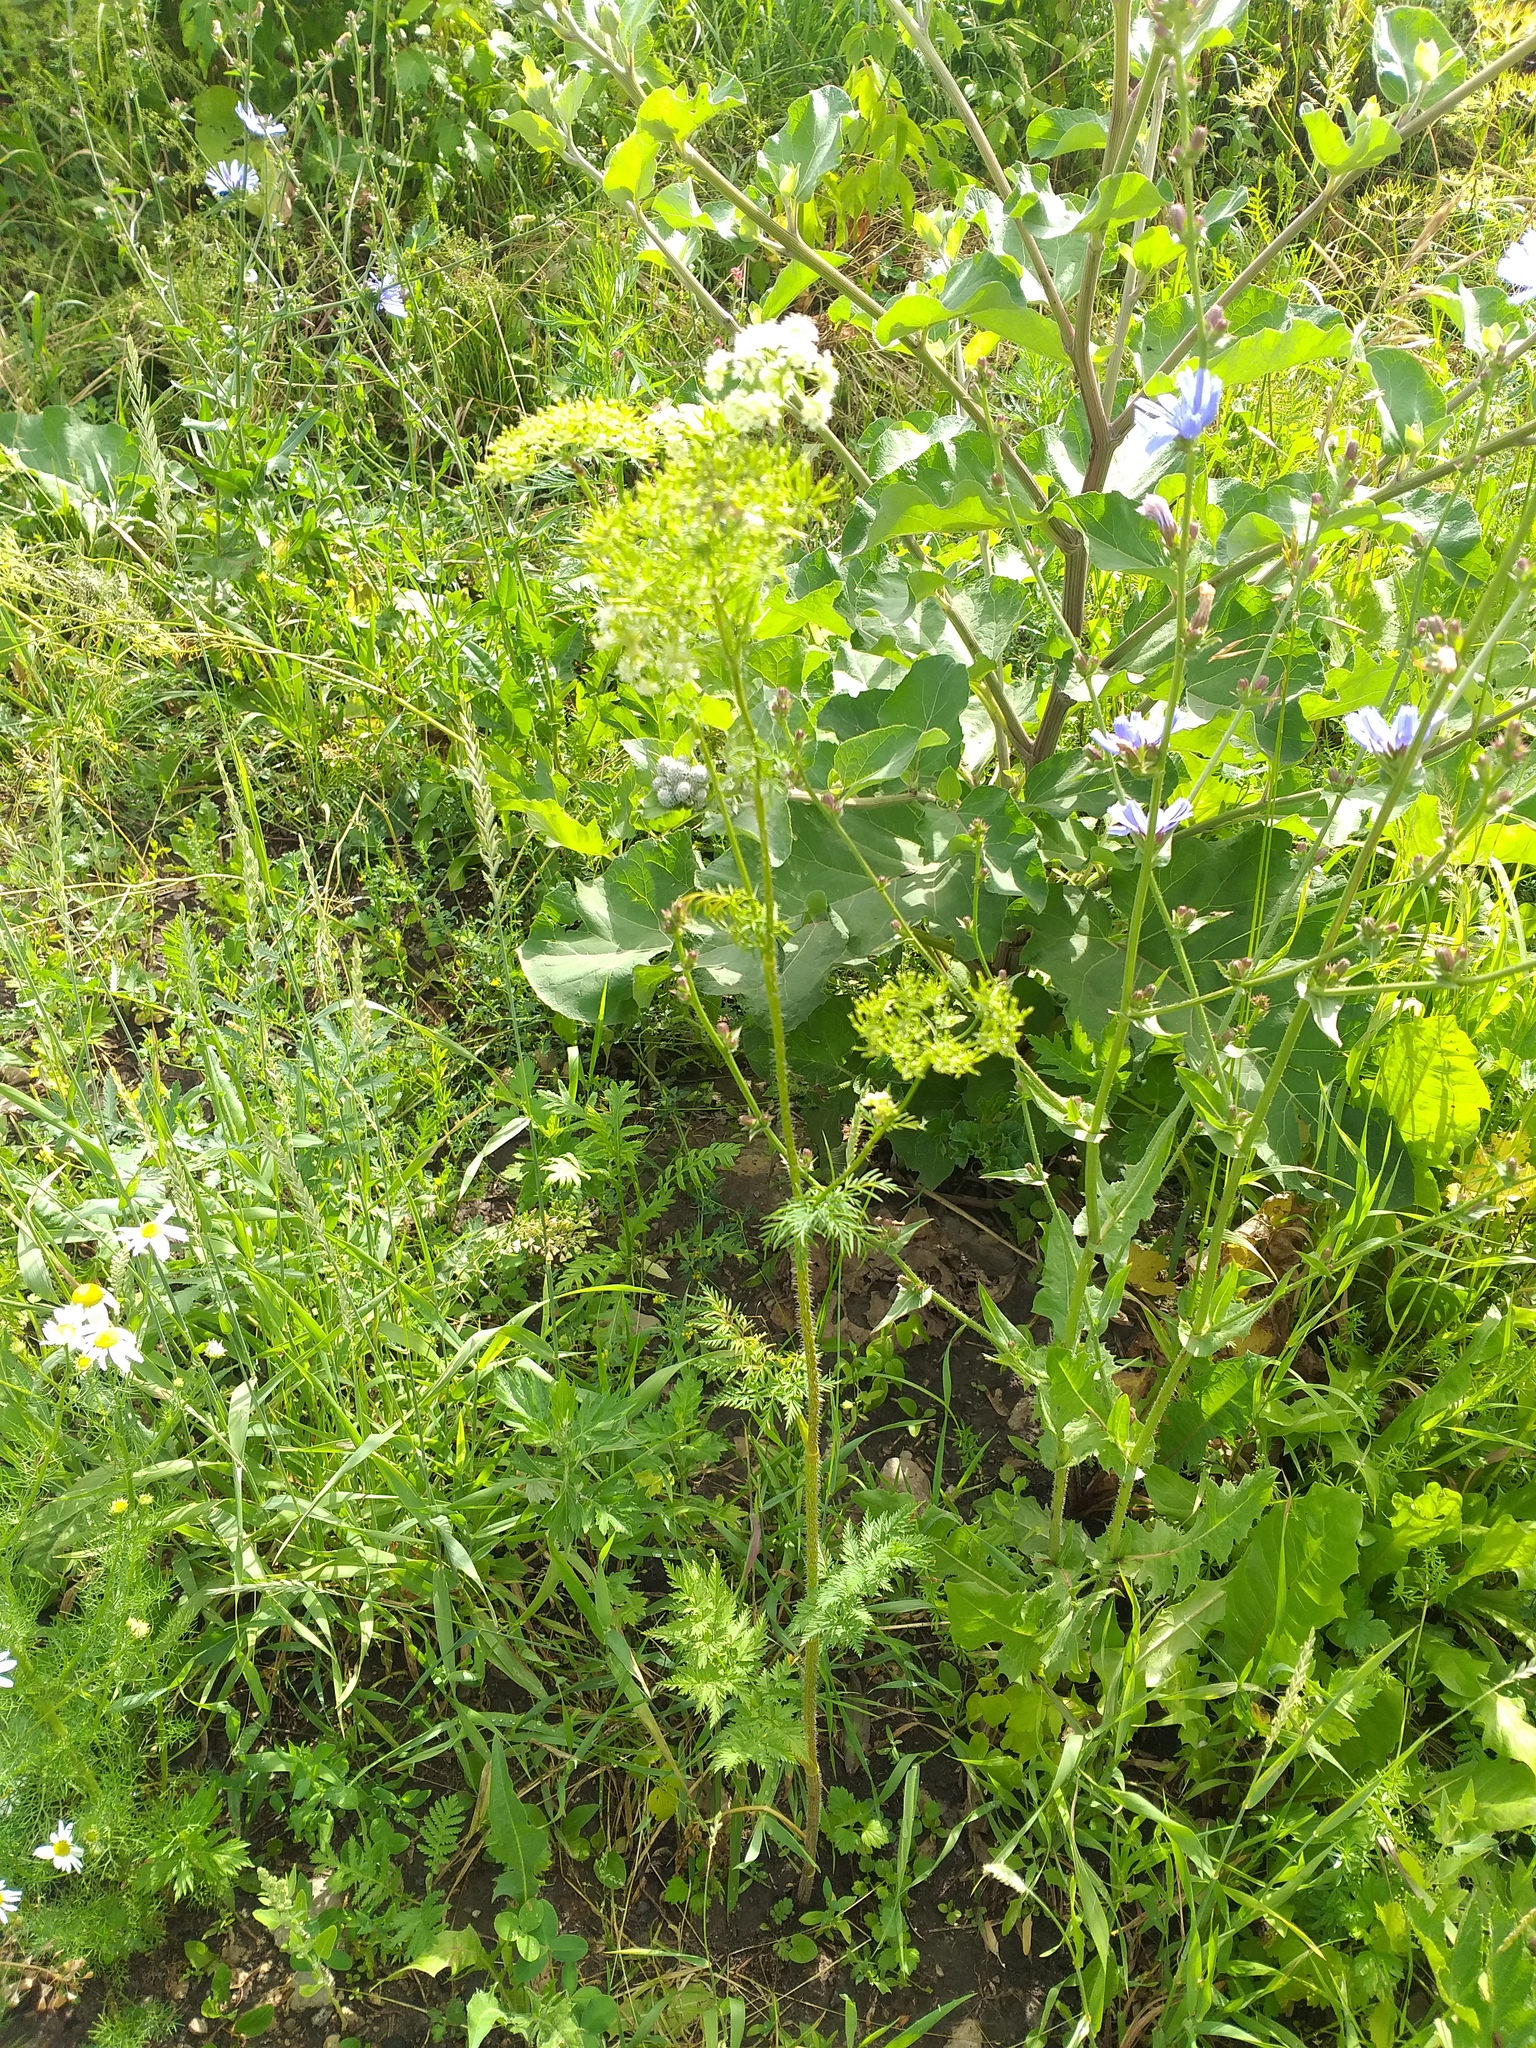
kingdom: Plantae
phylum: Tracheophyta
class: Magnoliopsida
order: Apiales
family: Apiaceae
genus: Chaerophyllum
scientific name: Chaerophyllum prescottii
